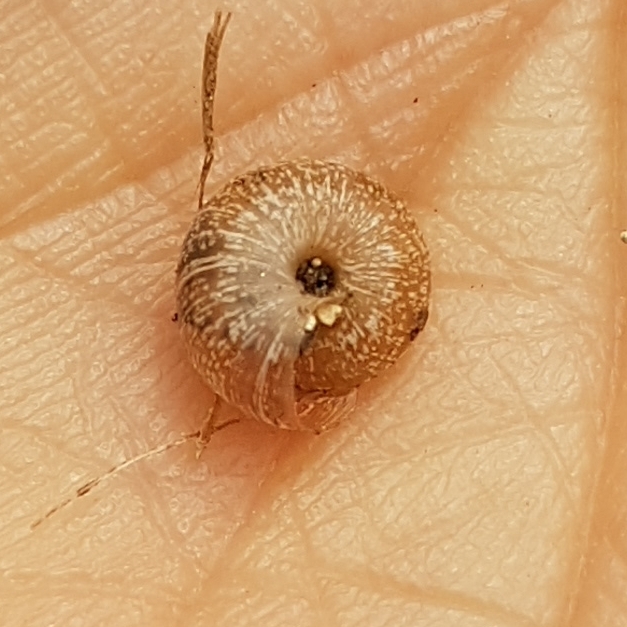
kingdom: Animalia
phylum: Mollusca
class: Gastropoda
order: Stylommatophora
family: Geomitridae
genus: Xerotricha
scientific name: Xerotricha conspurcata
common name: Snail
